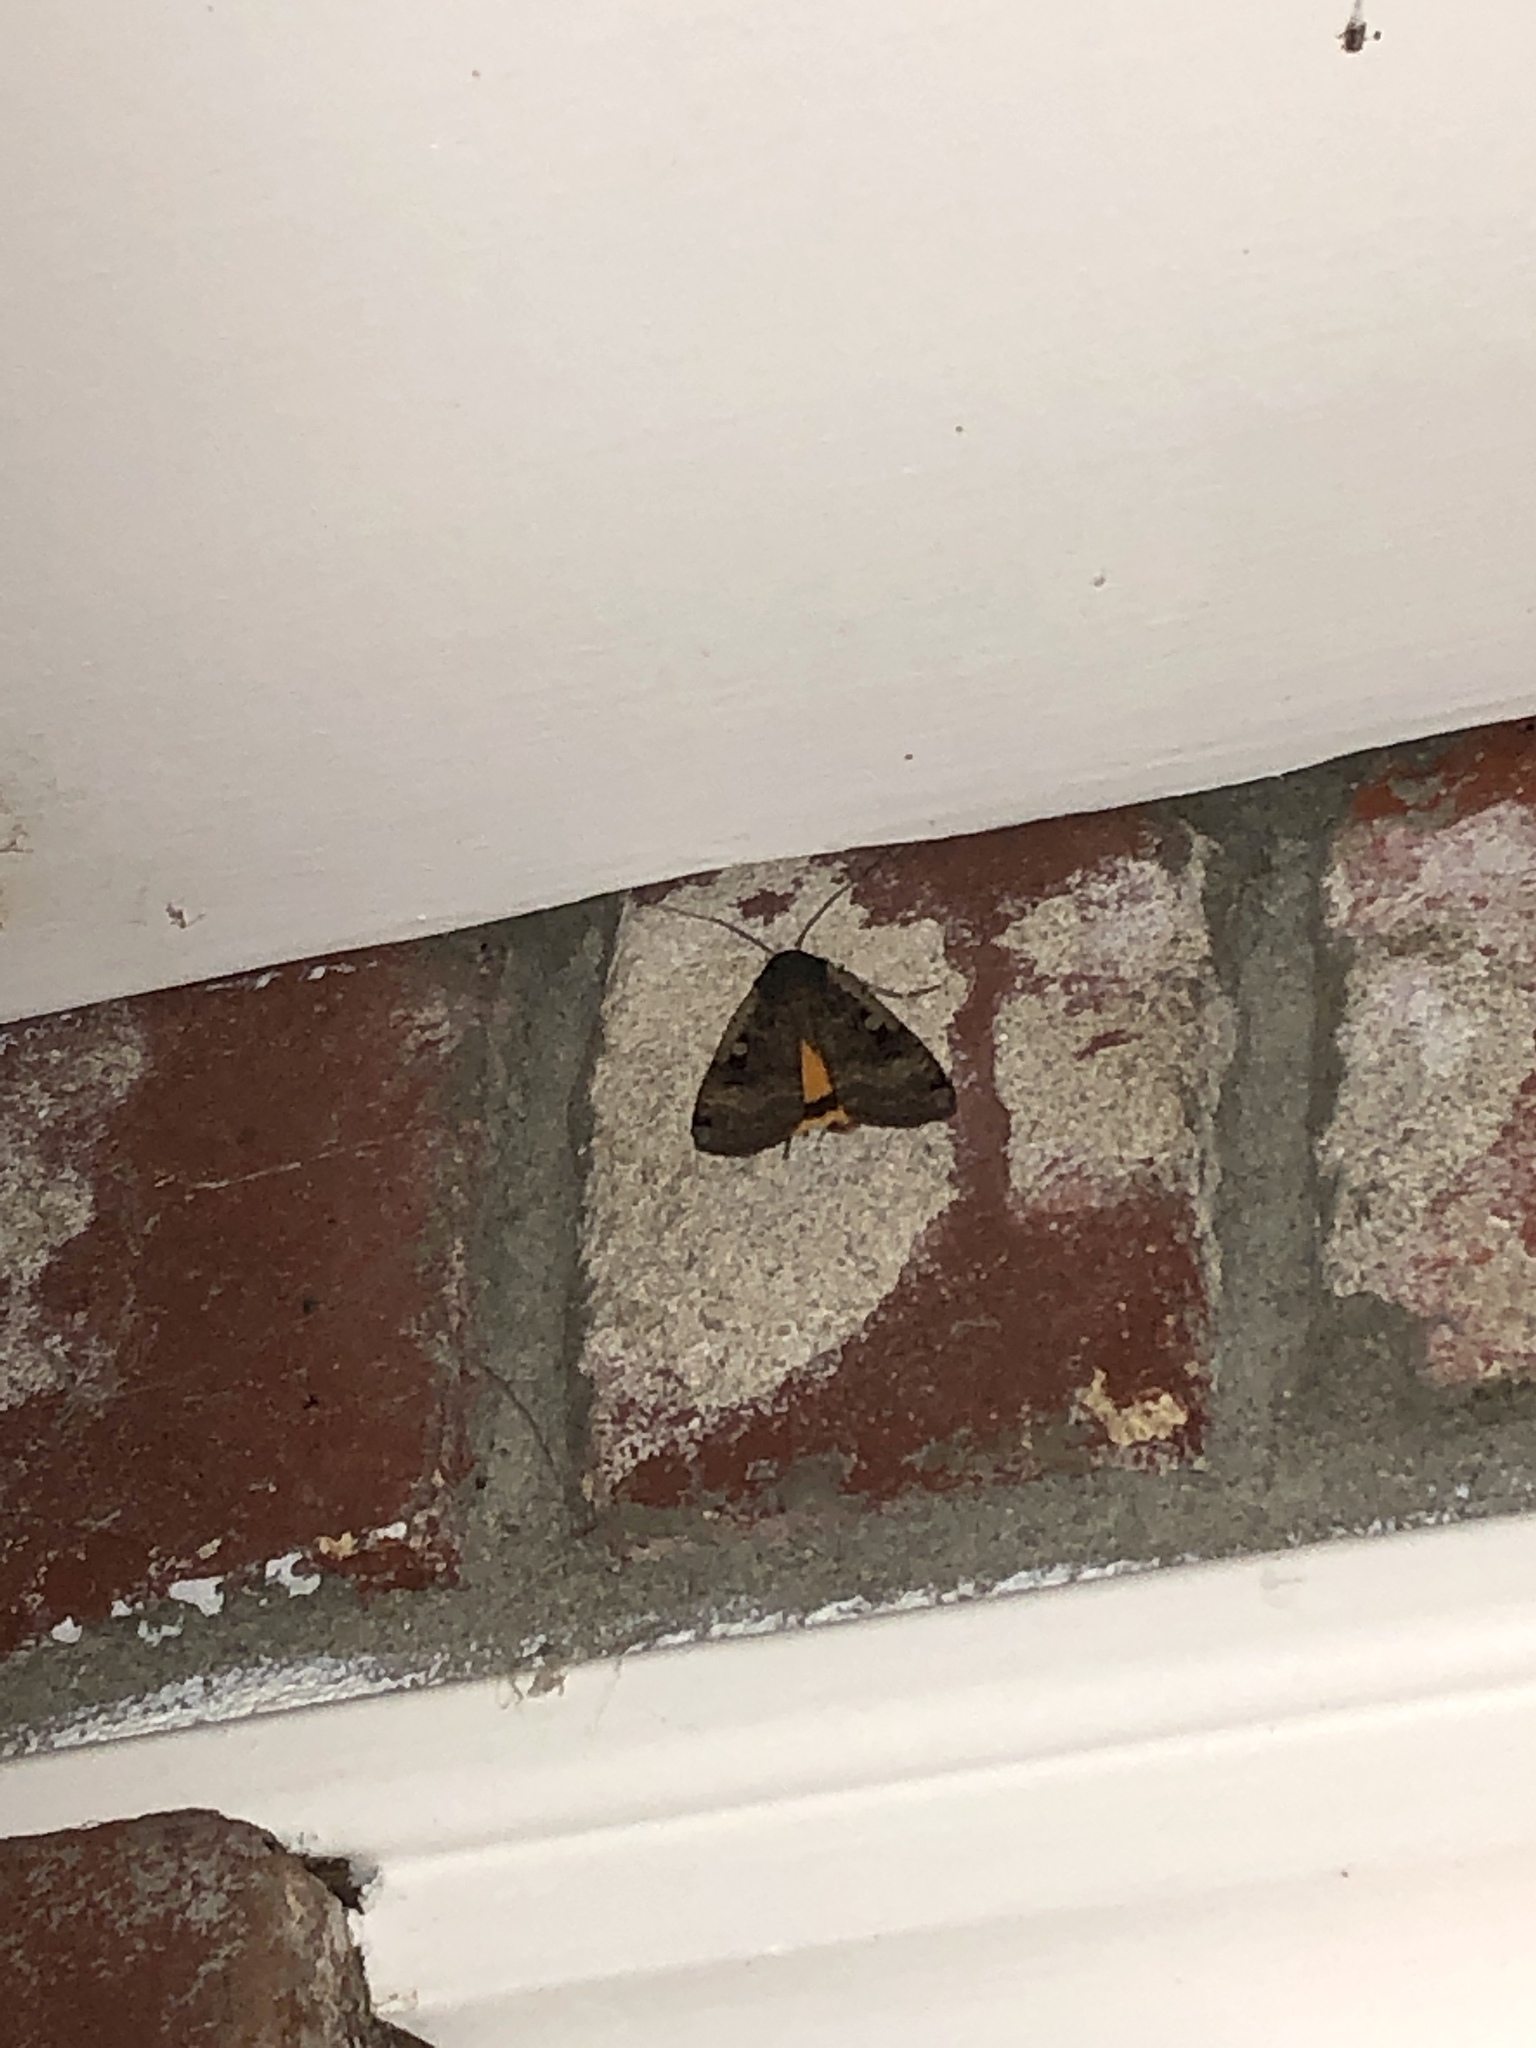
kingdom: Animalia
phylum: Arthropoda
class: Insecta
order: Lepidoptera
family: Noctuidae
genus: Noctua
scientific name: Noctua pronuba
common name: Large yellow underwing
